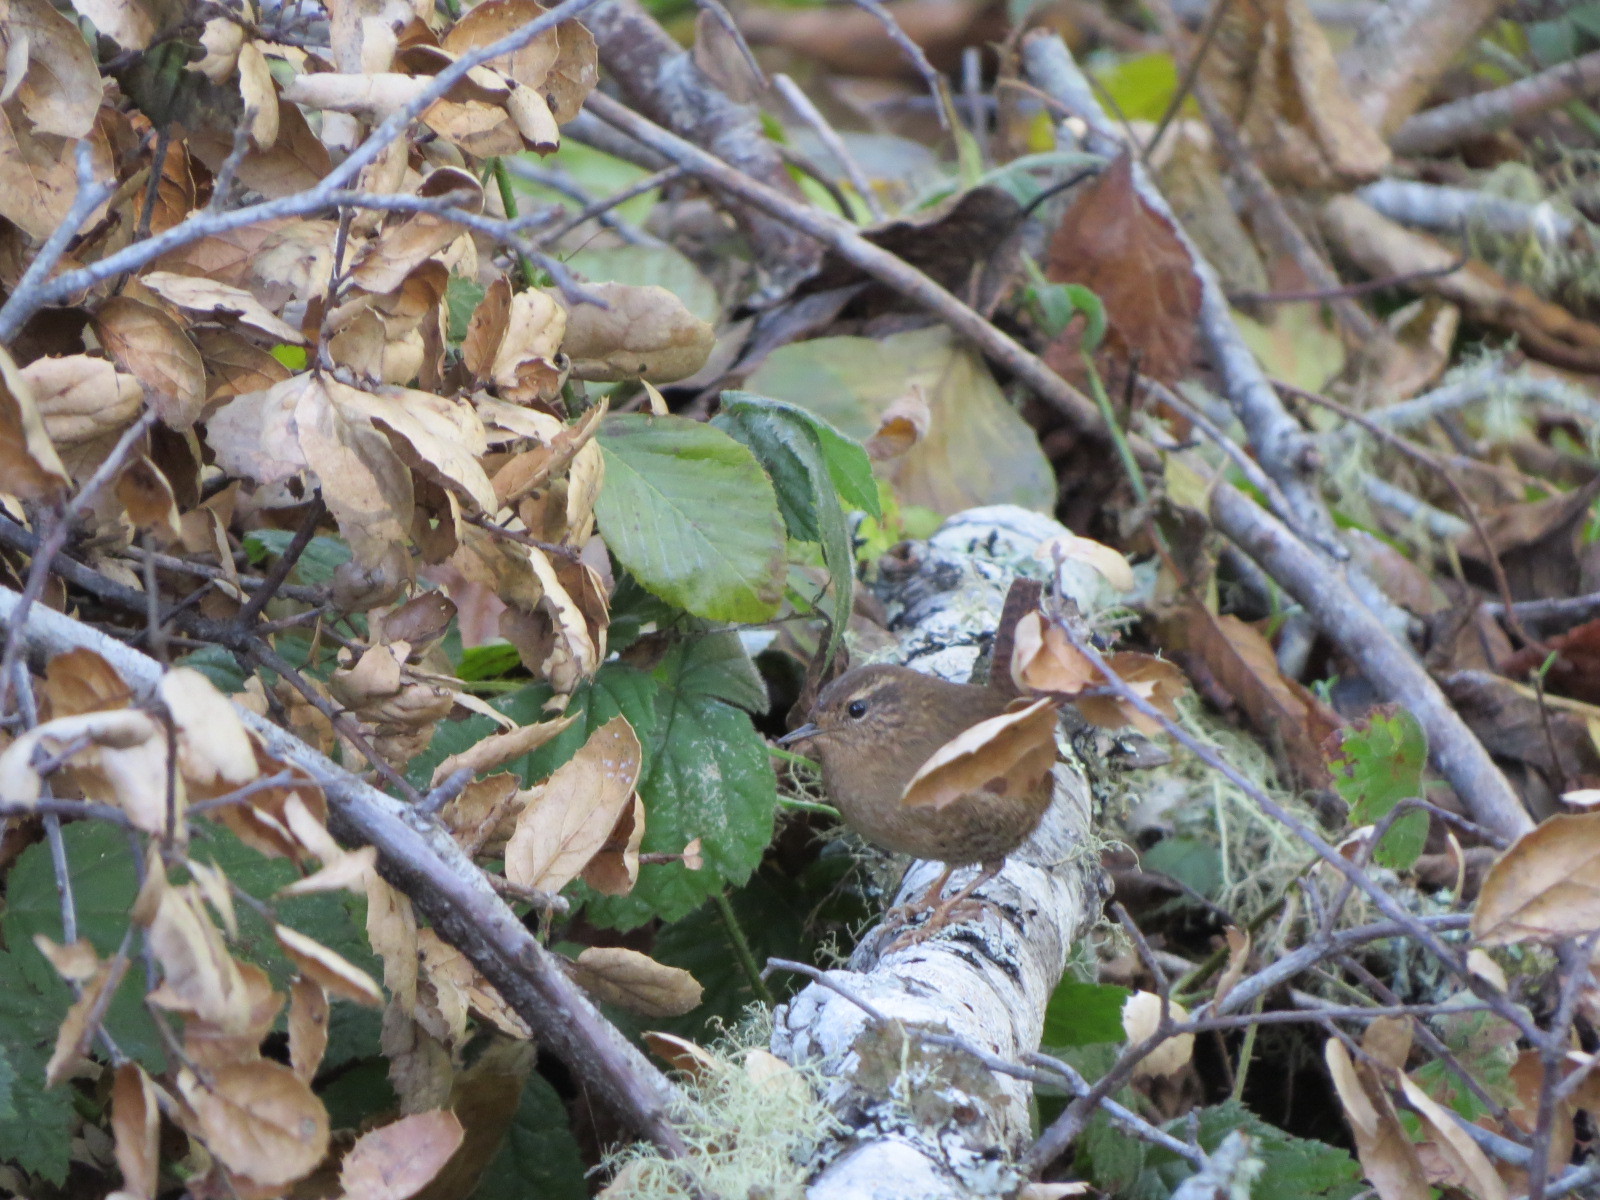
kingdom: Animalia
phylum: Chordata
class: Aves
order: Passeriformes
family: Troglodytidae
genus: Troglodytes
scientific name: Troglodytes pacificus
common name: Pacific wren
